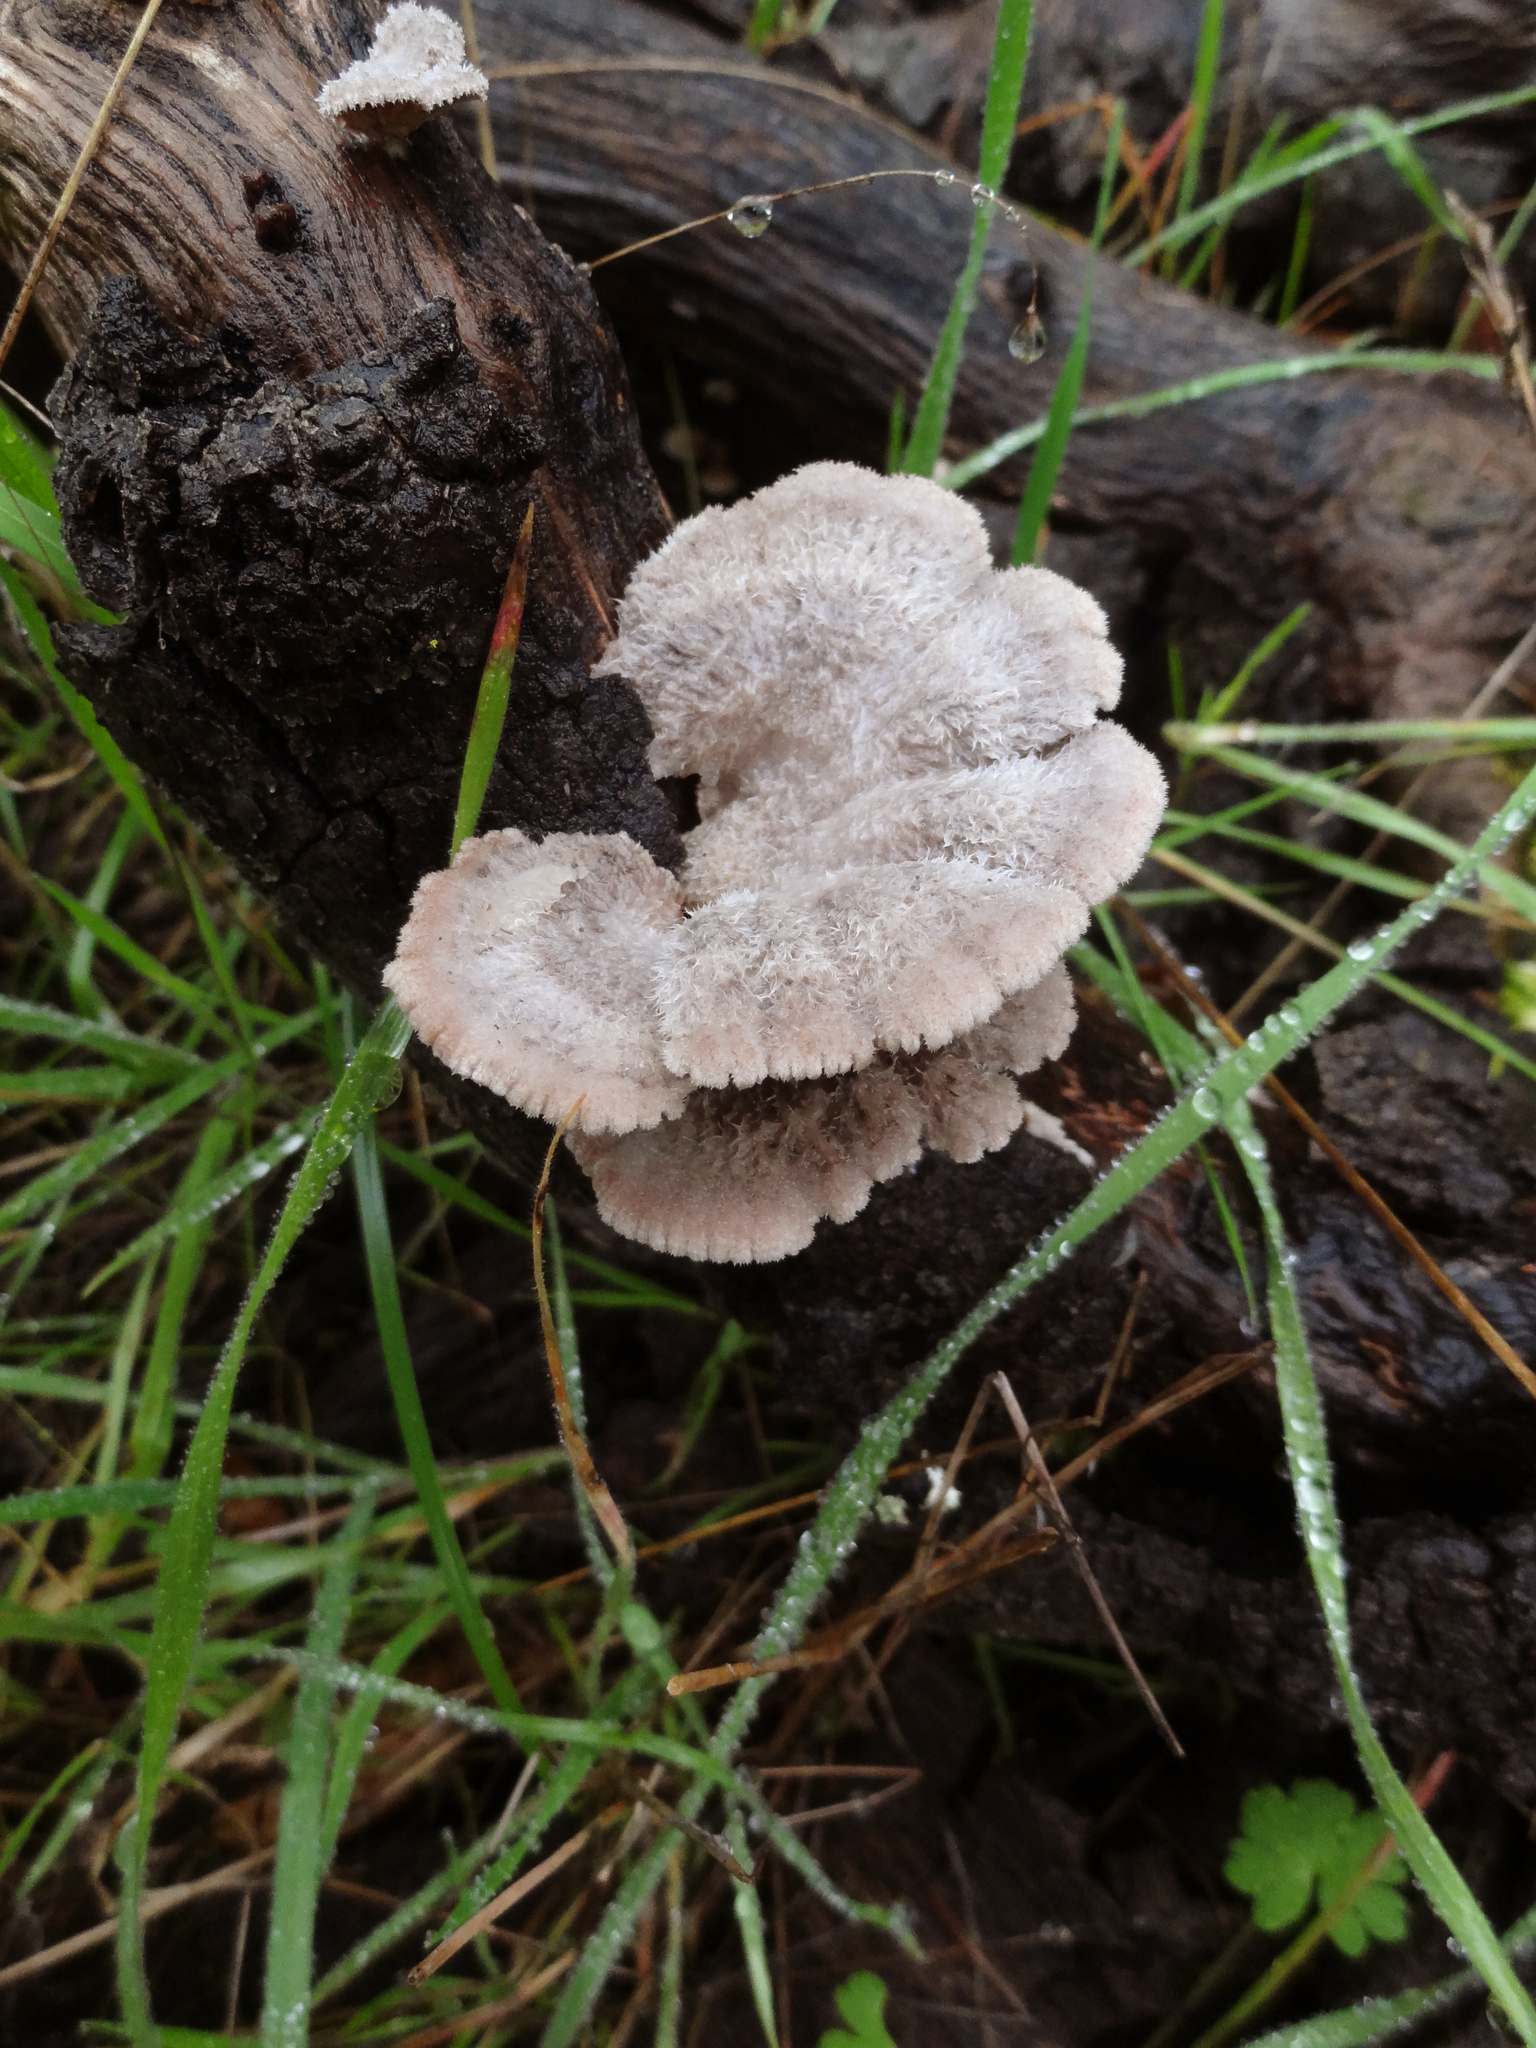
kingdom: Fungi
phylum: Basidiomycota
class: Agaricomycetes
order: Agaricales
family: Schizophyllaceae
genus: Schizophyllum
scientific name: Schizophyllum commune
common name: Common porecrust
